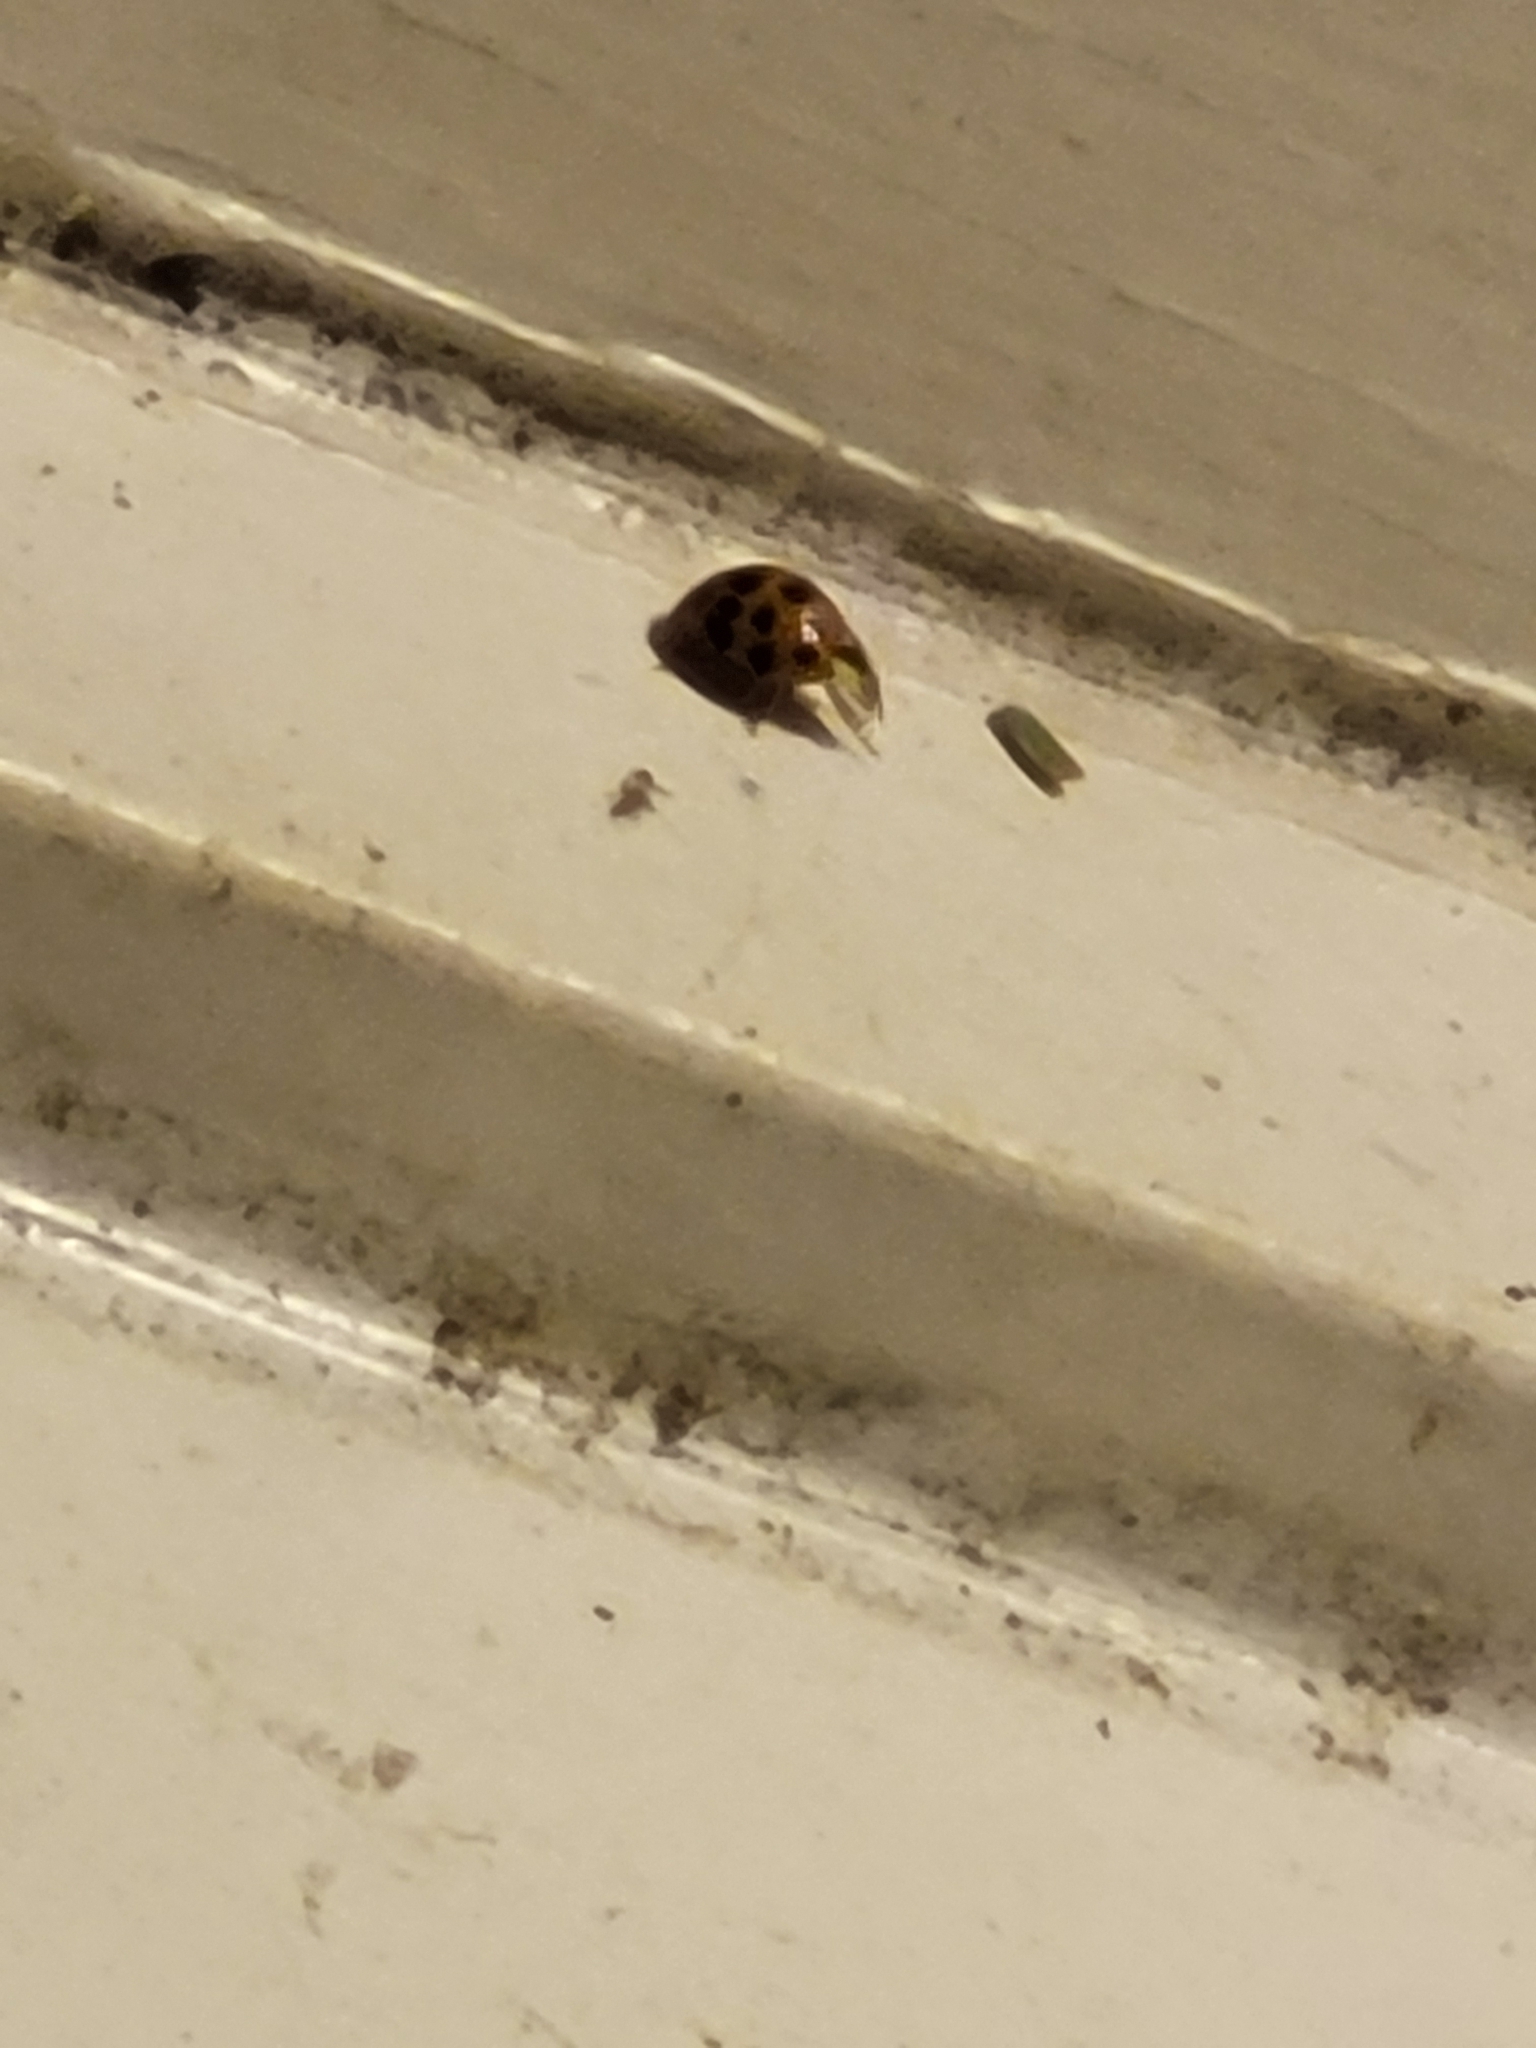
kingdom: Animalia
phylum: Arthropoda
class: Insecta
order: Coleoptera
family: Coccinellidae
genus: Harmonia
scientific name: Harmonia axyridis
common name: Harlequin ladybird
